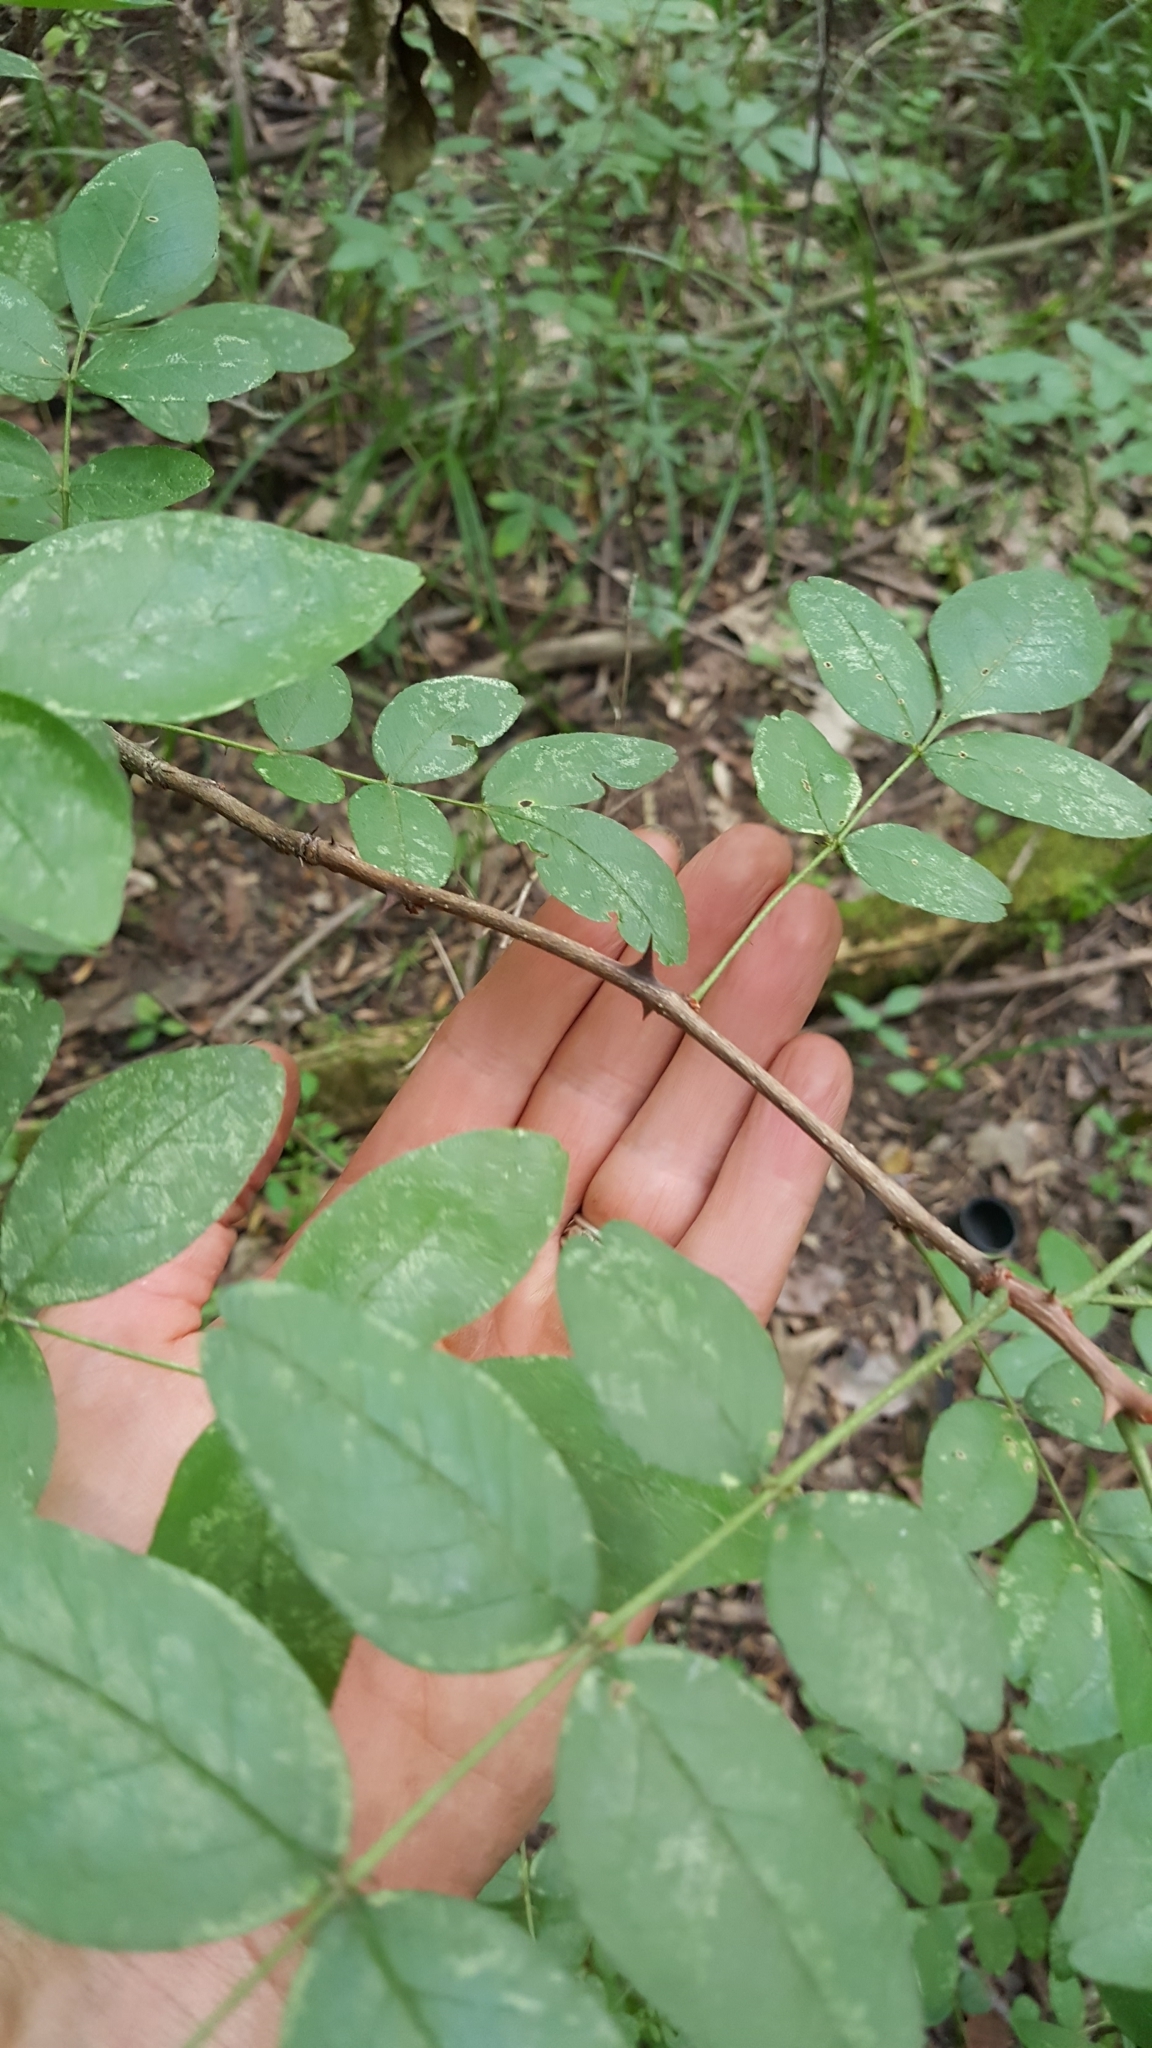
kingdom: Plantae
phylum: Tracheophyta
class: Magnoliopsida
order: Sapindales
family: Rutaceae
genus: Zanthoxylum
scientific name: Zanthoxylum americanum
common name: Northern prickly-ash
